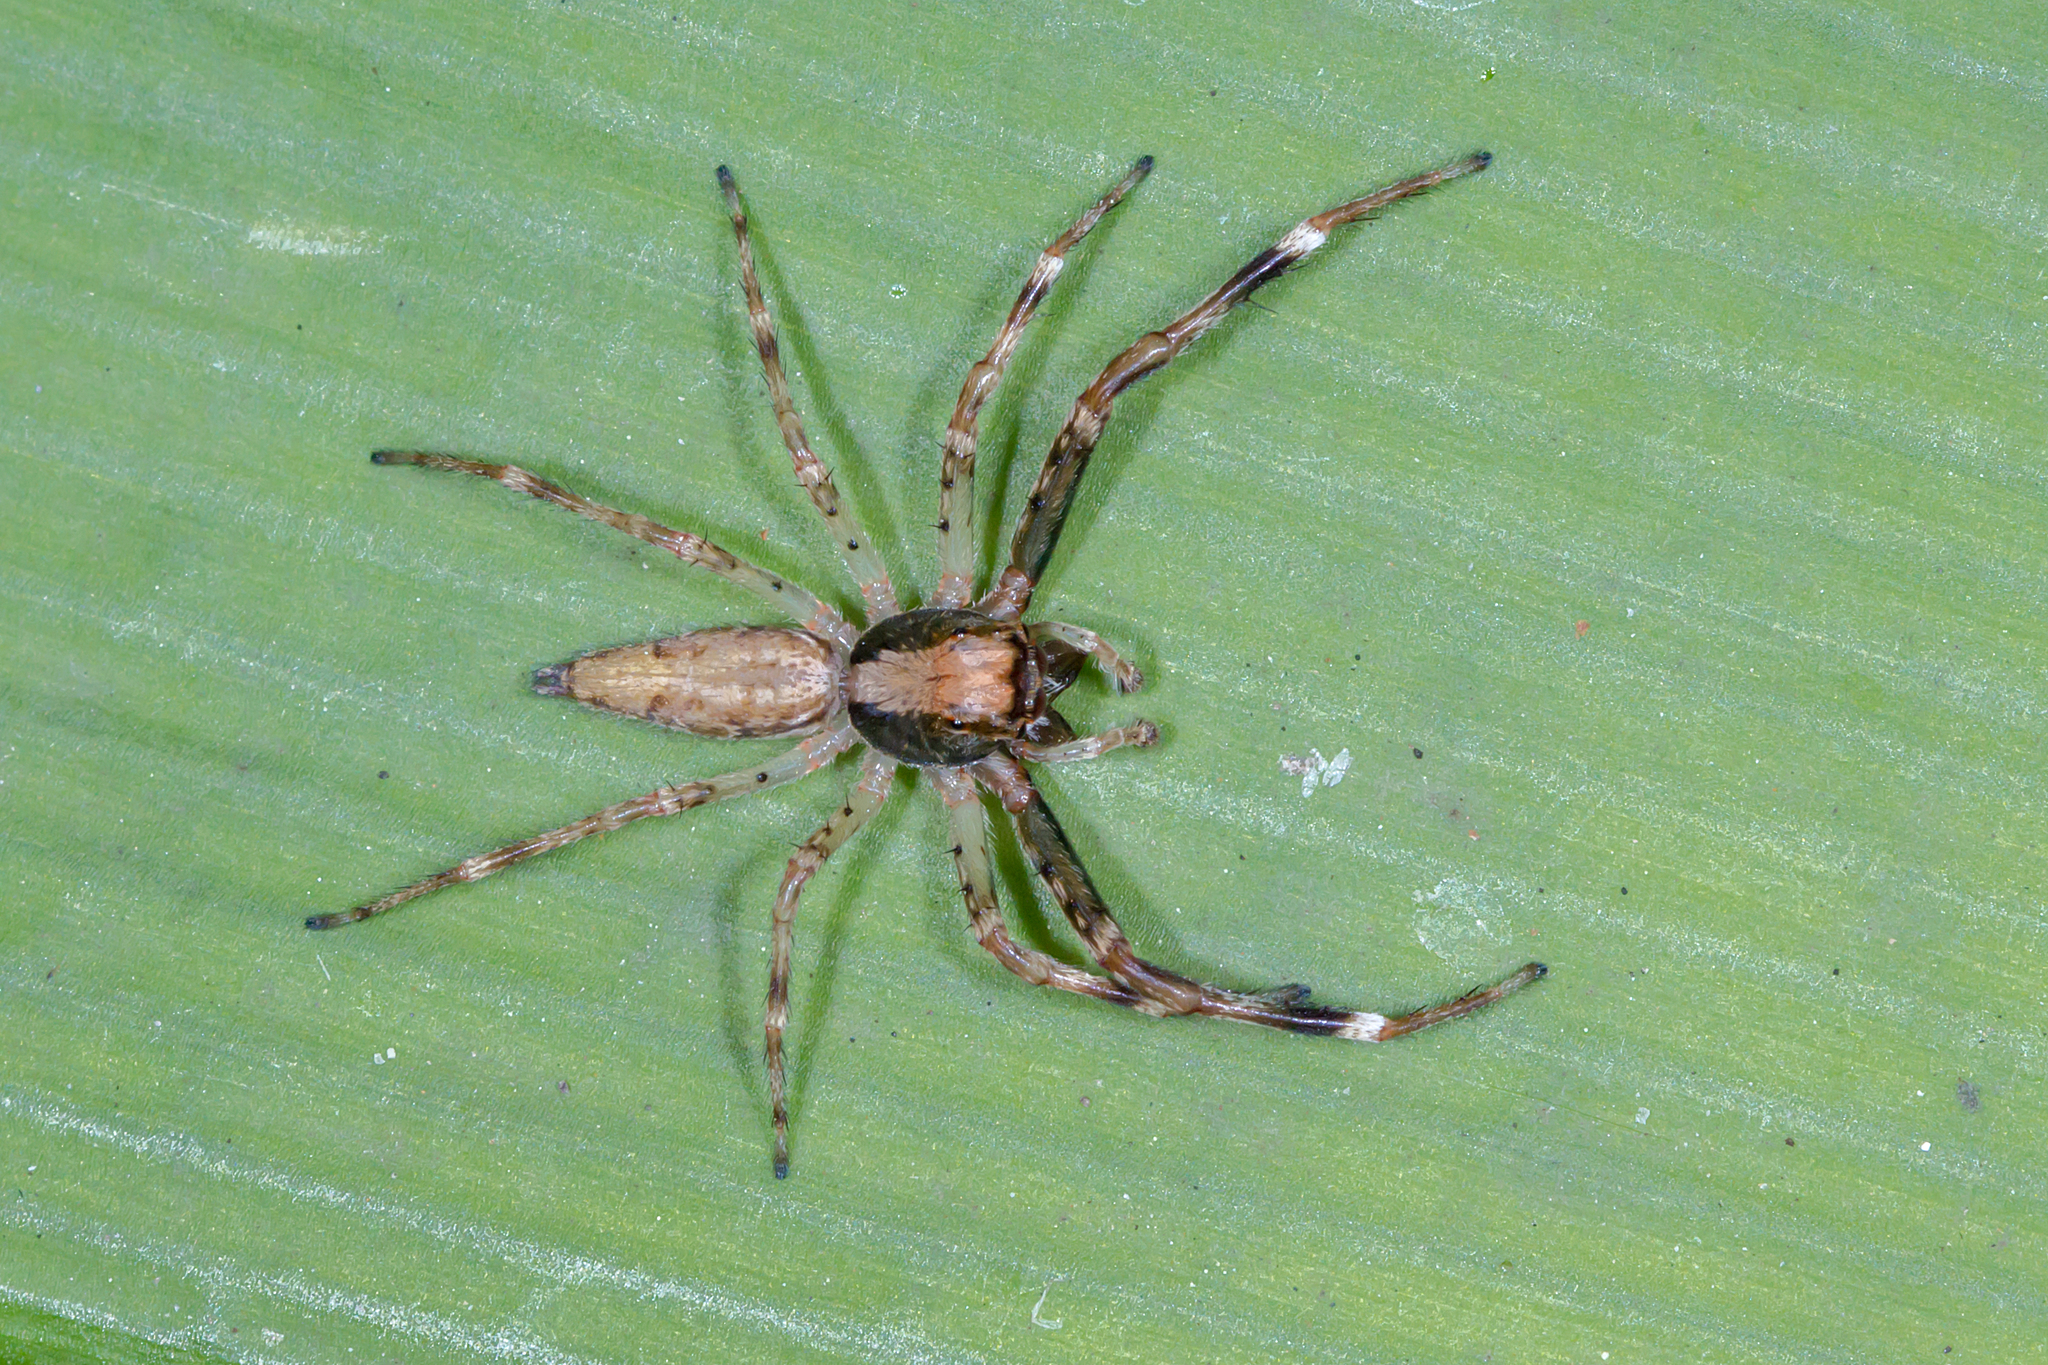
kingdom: Animalia
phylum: Arthropoda
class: Arachnida
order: Araneae
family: Salticidae
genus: Helpis
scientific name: Helpis minitabunda
